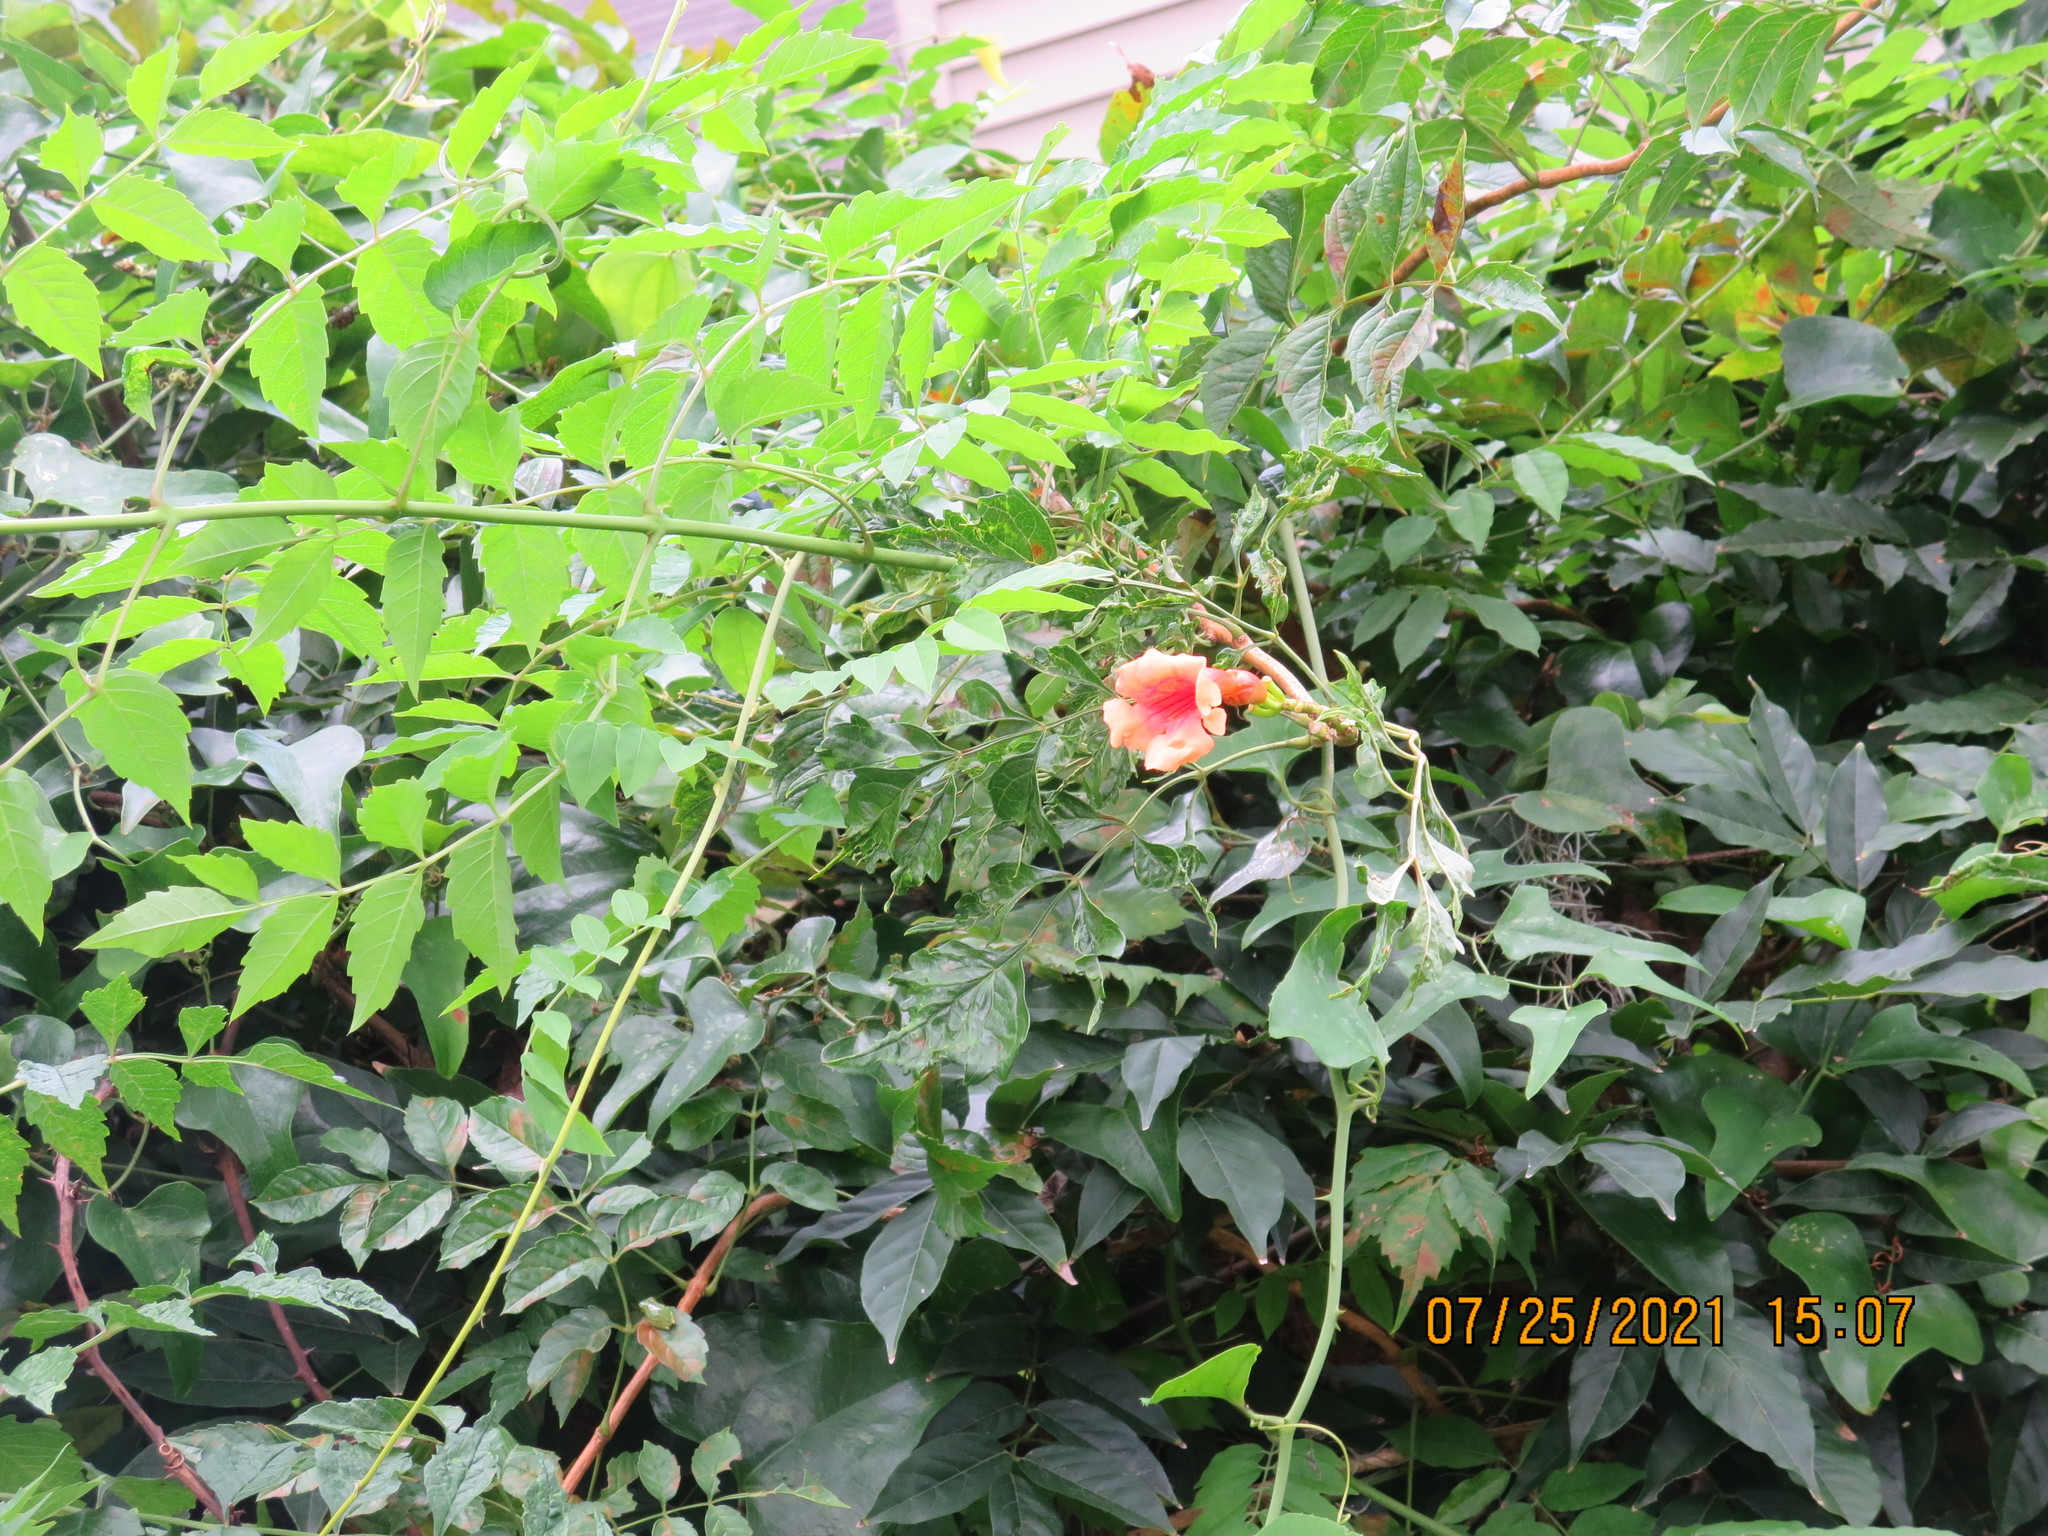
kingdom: Plantae
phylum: Tracheophyta
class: Magnoliopsida
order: Lamiales
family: Bignoniaceae
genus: Campsis
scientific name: Campsis radicans
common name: Trumpet-creeper
